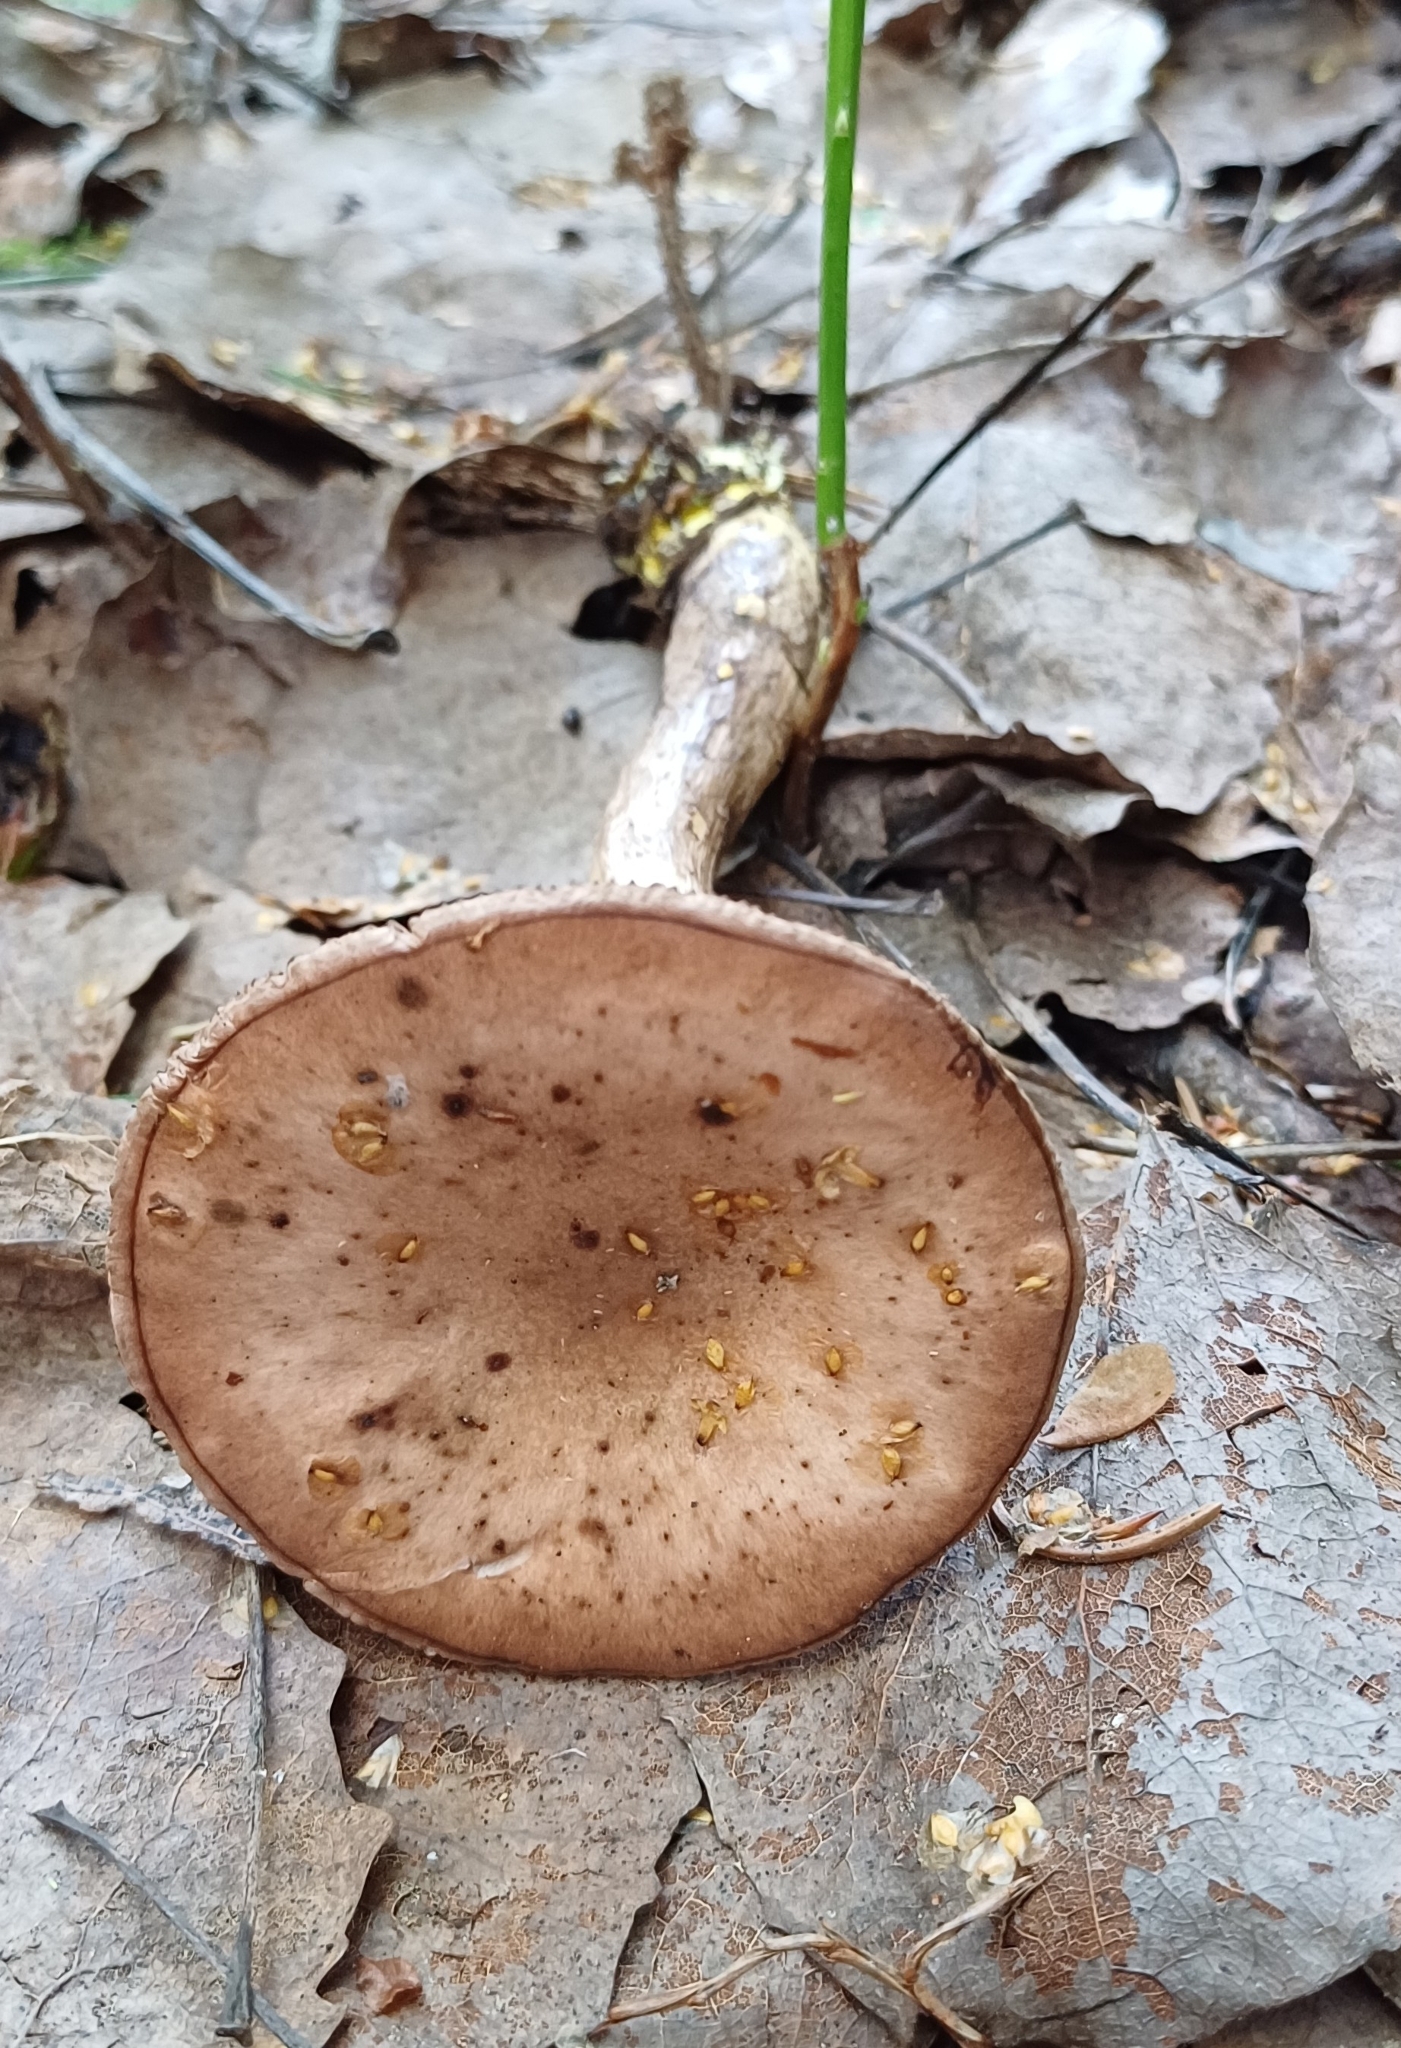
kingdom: Fungi
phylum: Basidiomycota
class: Agaricomycetes
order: Boletales
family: Gomphidiaceae
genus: Gomphidius
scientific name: Gomphidius glutinosus
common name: Slimy spike
